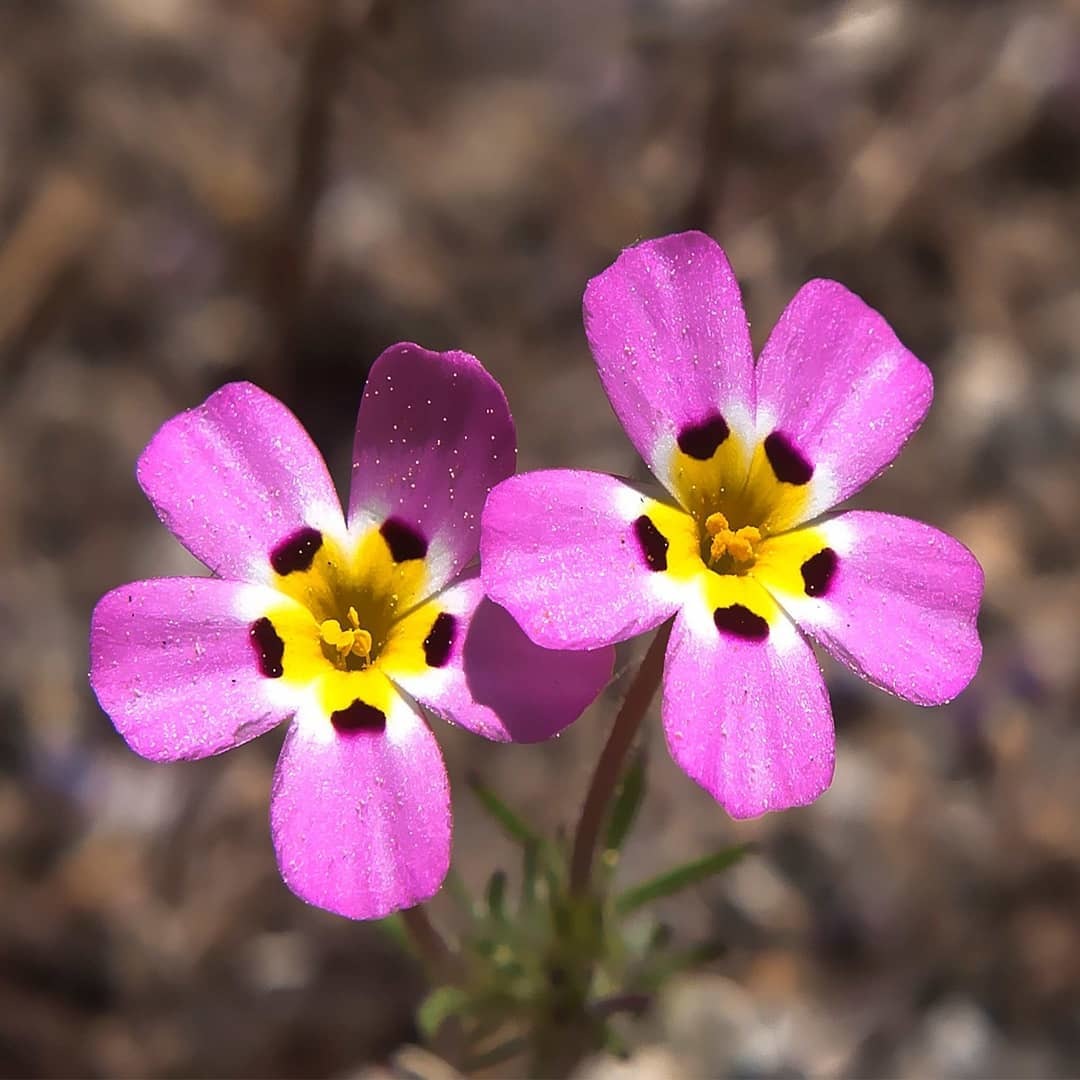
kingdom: Plantae
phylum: Tracheophyta
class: Magnoliopsida
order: Ericales
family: Polemoniaceae
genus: Leptosiphon
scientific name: Leptosiphon ciliatus
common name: Whiskerbrush
